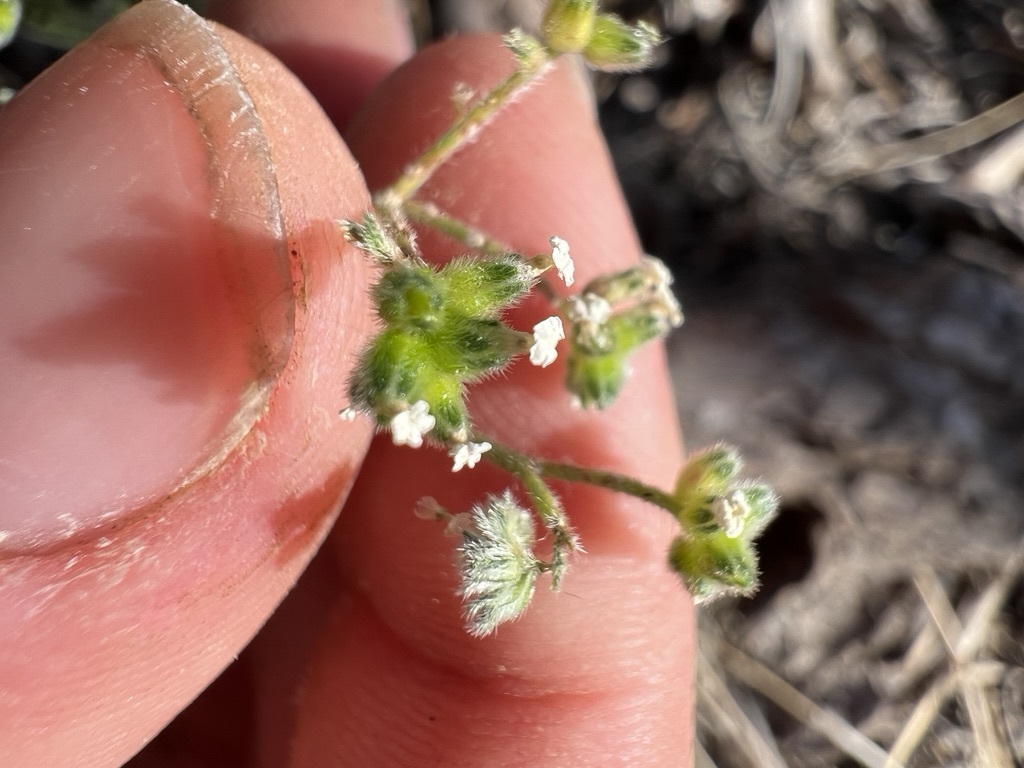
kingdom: Plantae
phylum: Tracheophyta
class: Magnoliopsida
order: Boraginales
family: Boraginaceae
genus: Cryptantha
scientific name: Cryptantha pterocarya
